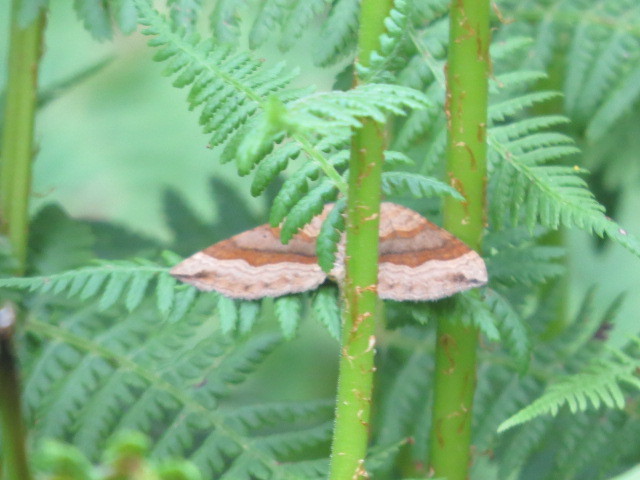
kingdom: Animalia
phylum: Arthropoda
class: Insecta
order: Lepidoptera
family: Geometridae
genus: Scotopteryx
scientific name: Scotopteryx chenopodiata
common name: Shaded broad-bar
